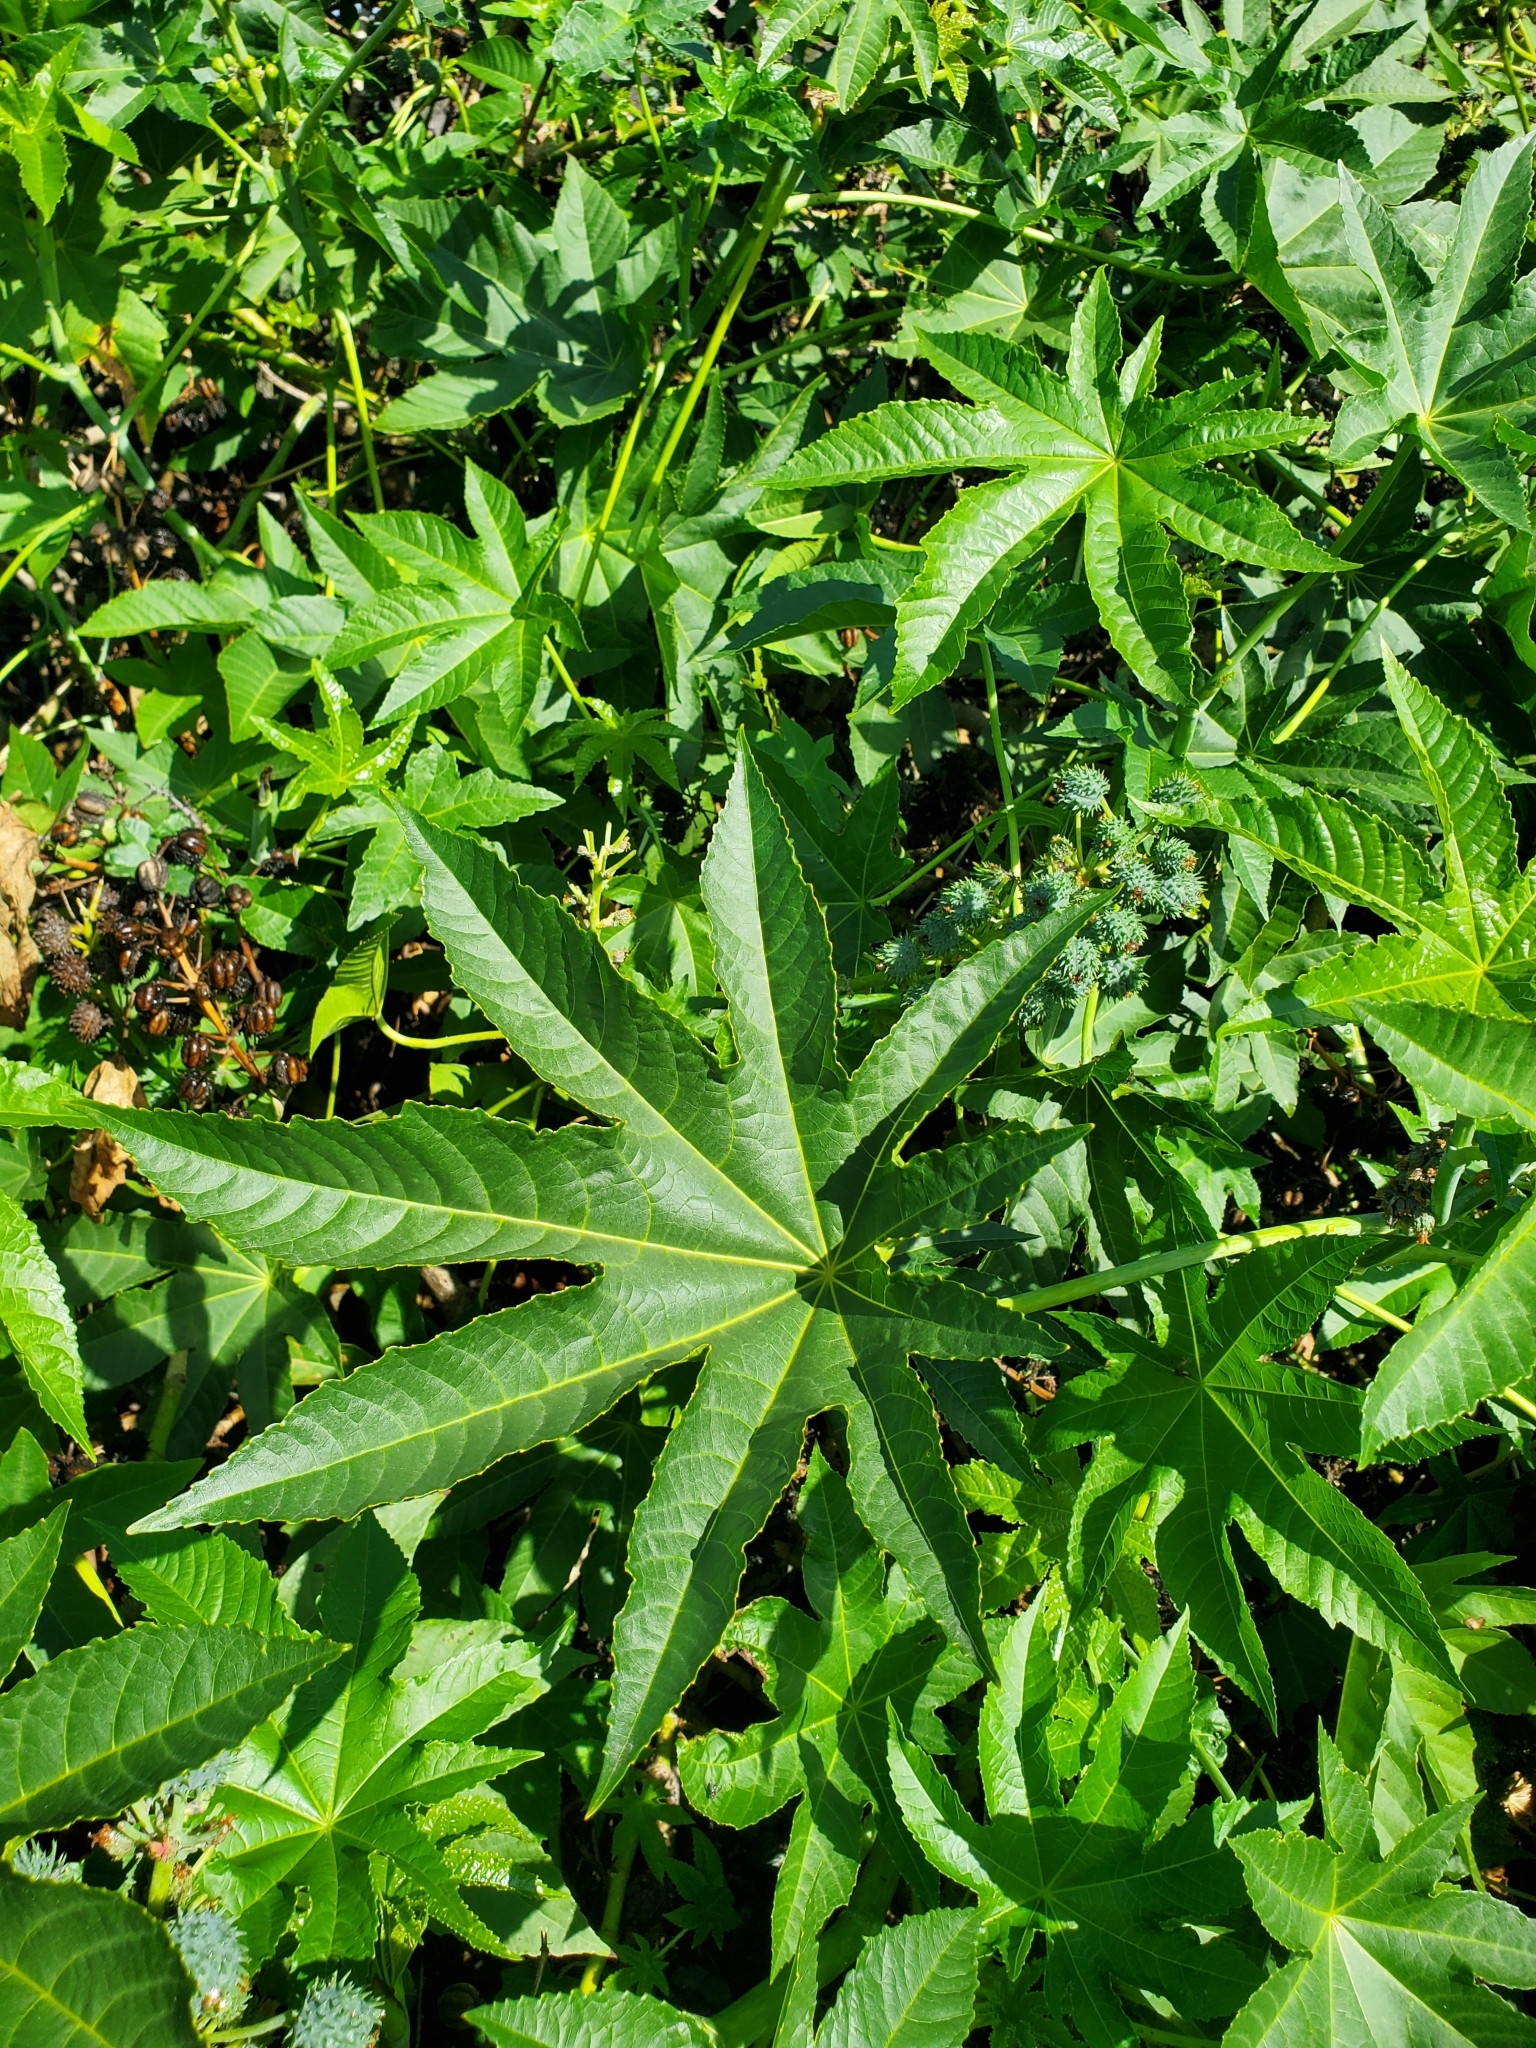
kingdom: Plantae
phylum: Tracheophyta
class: Magnoliopsida
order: Malpighiales
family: Euphorbiaceae
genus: Ricinus
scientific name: Ricinus communis
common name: Castor-oil-plant
